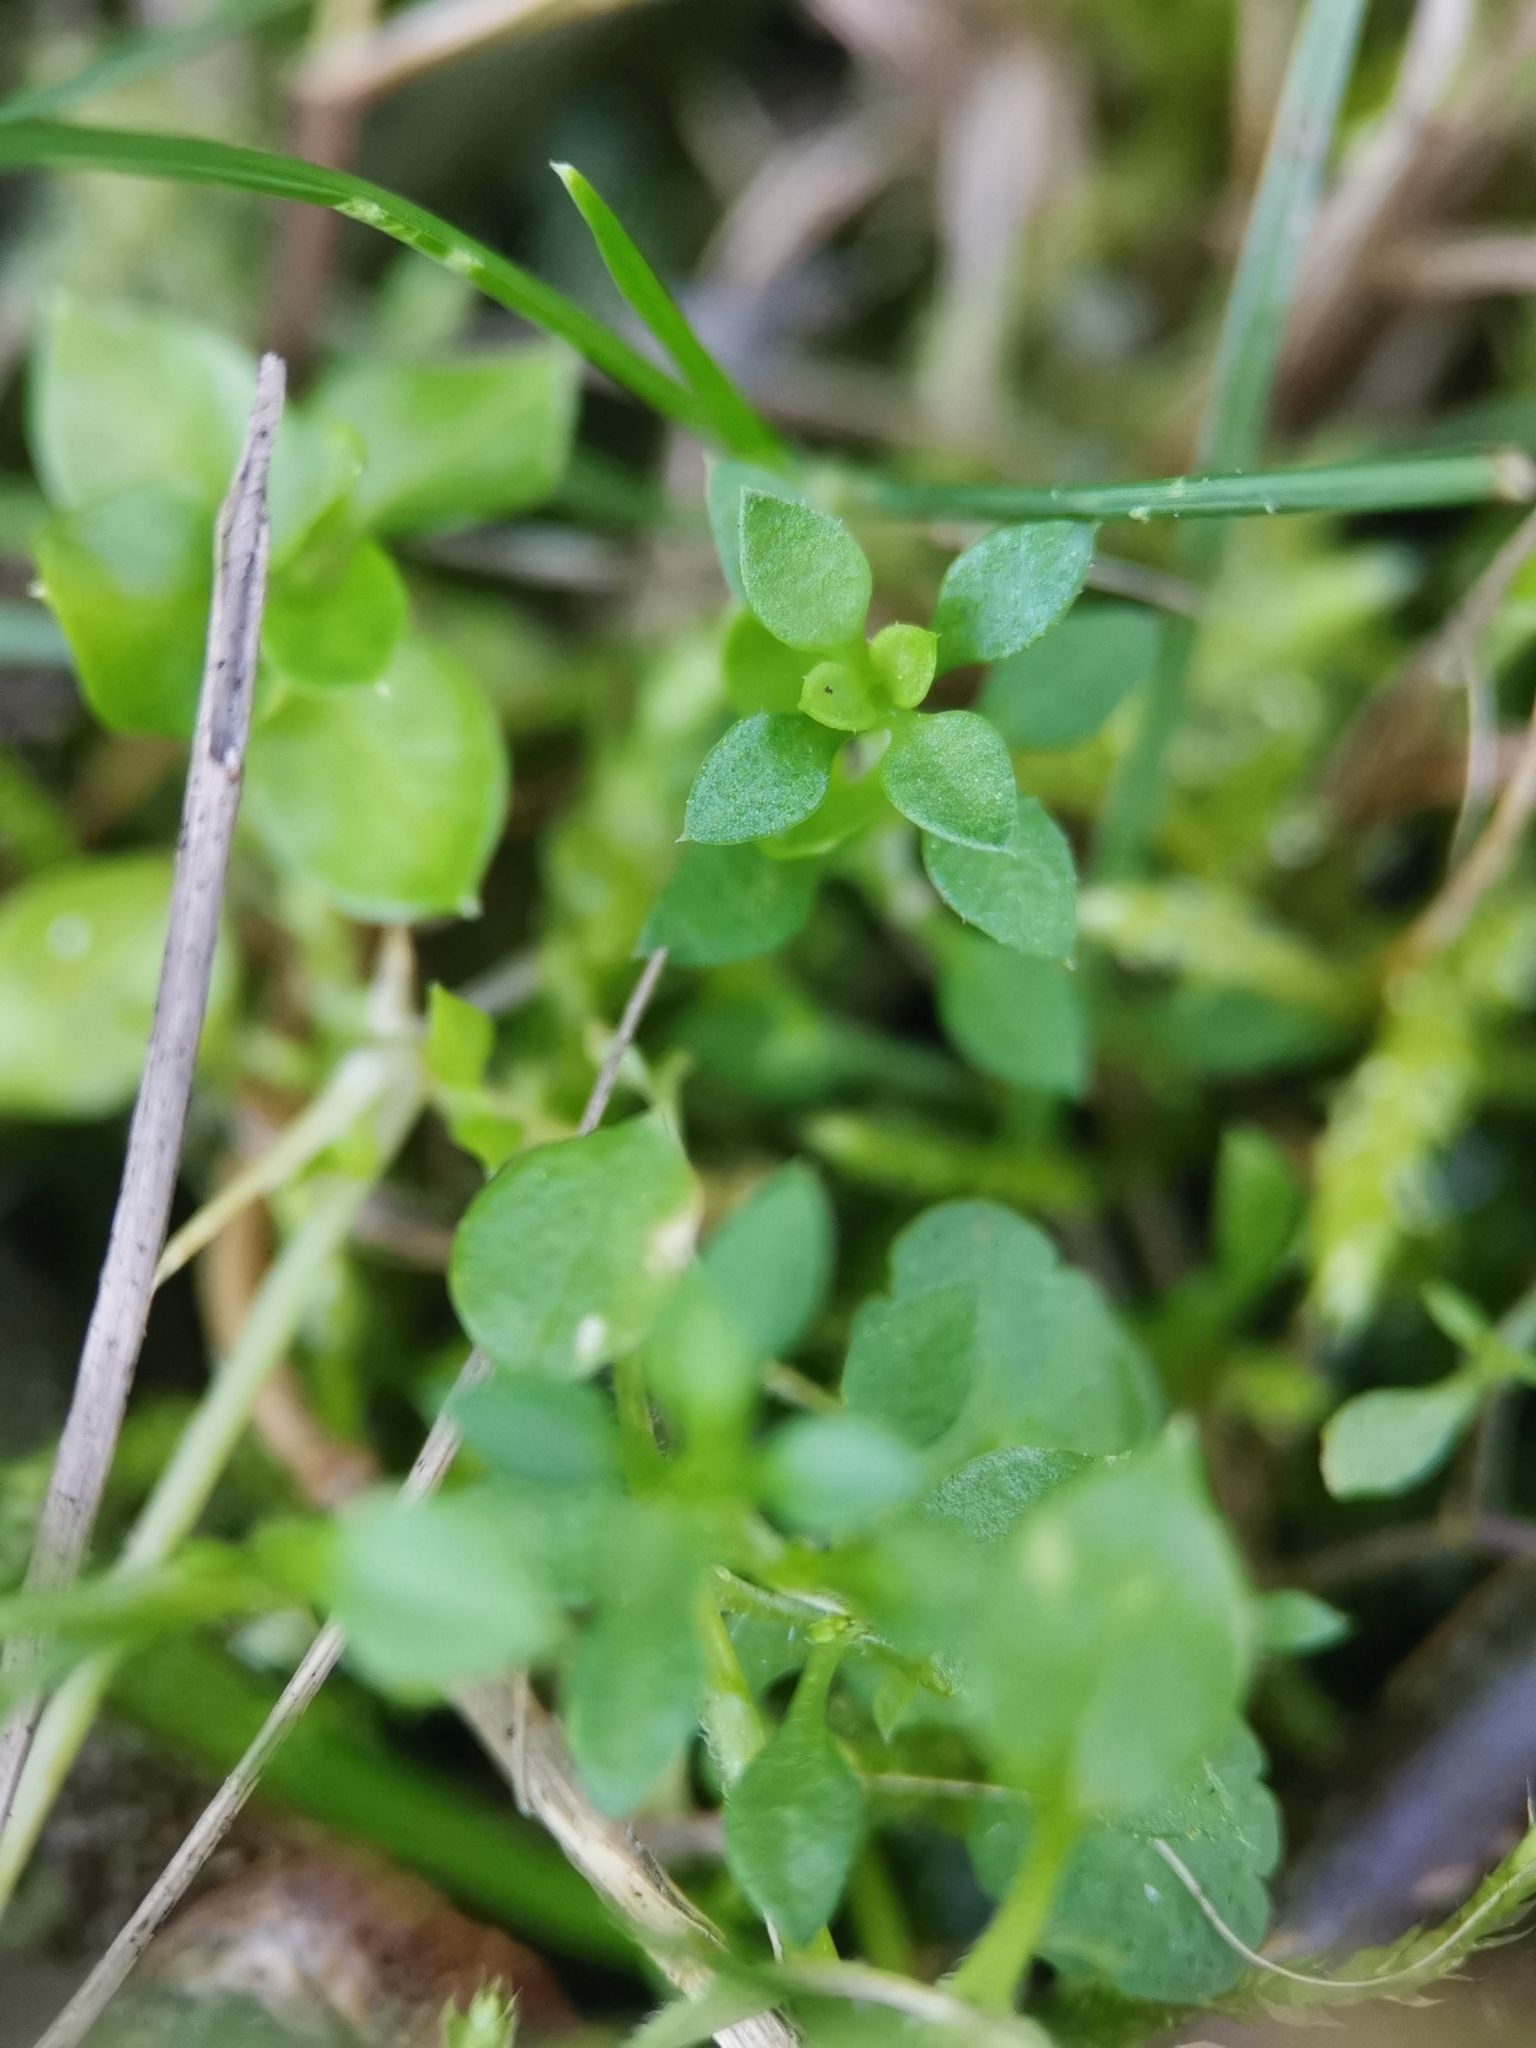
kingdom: Plantae
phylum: Tracheophyta
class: Magnoliopsida
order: Caryophyllales
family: Caryophyllaceae
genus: Arenaria
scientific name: Arenaria serpyllifolia
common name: Thyme-leaved sandwort
